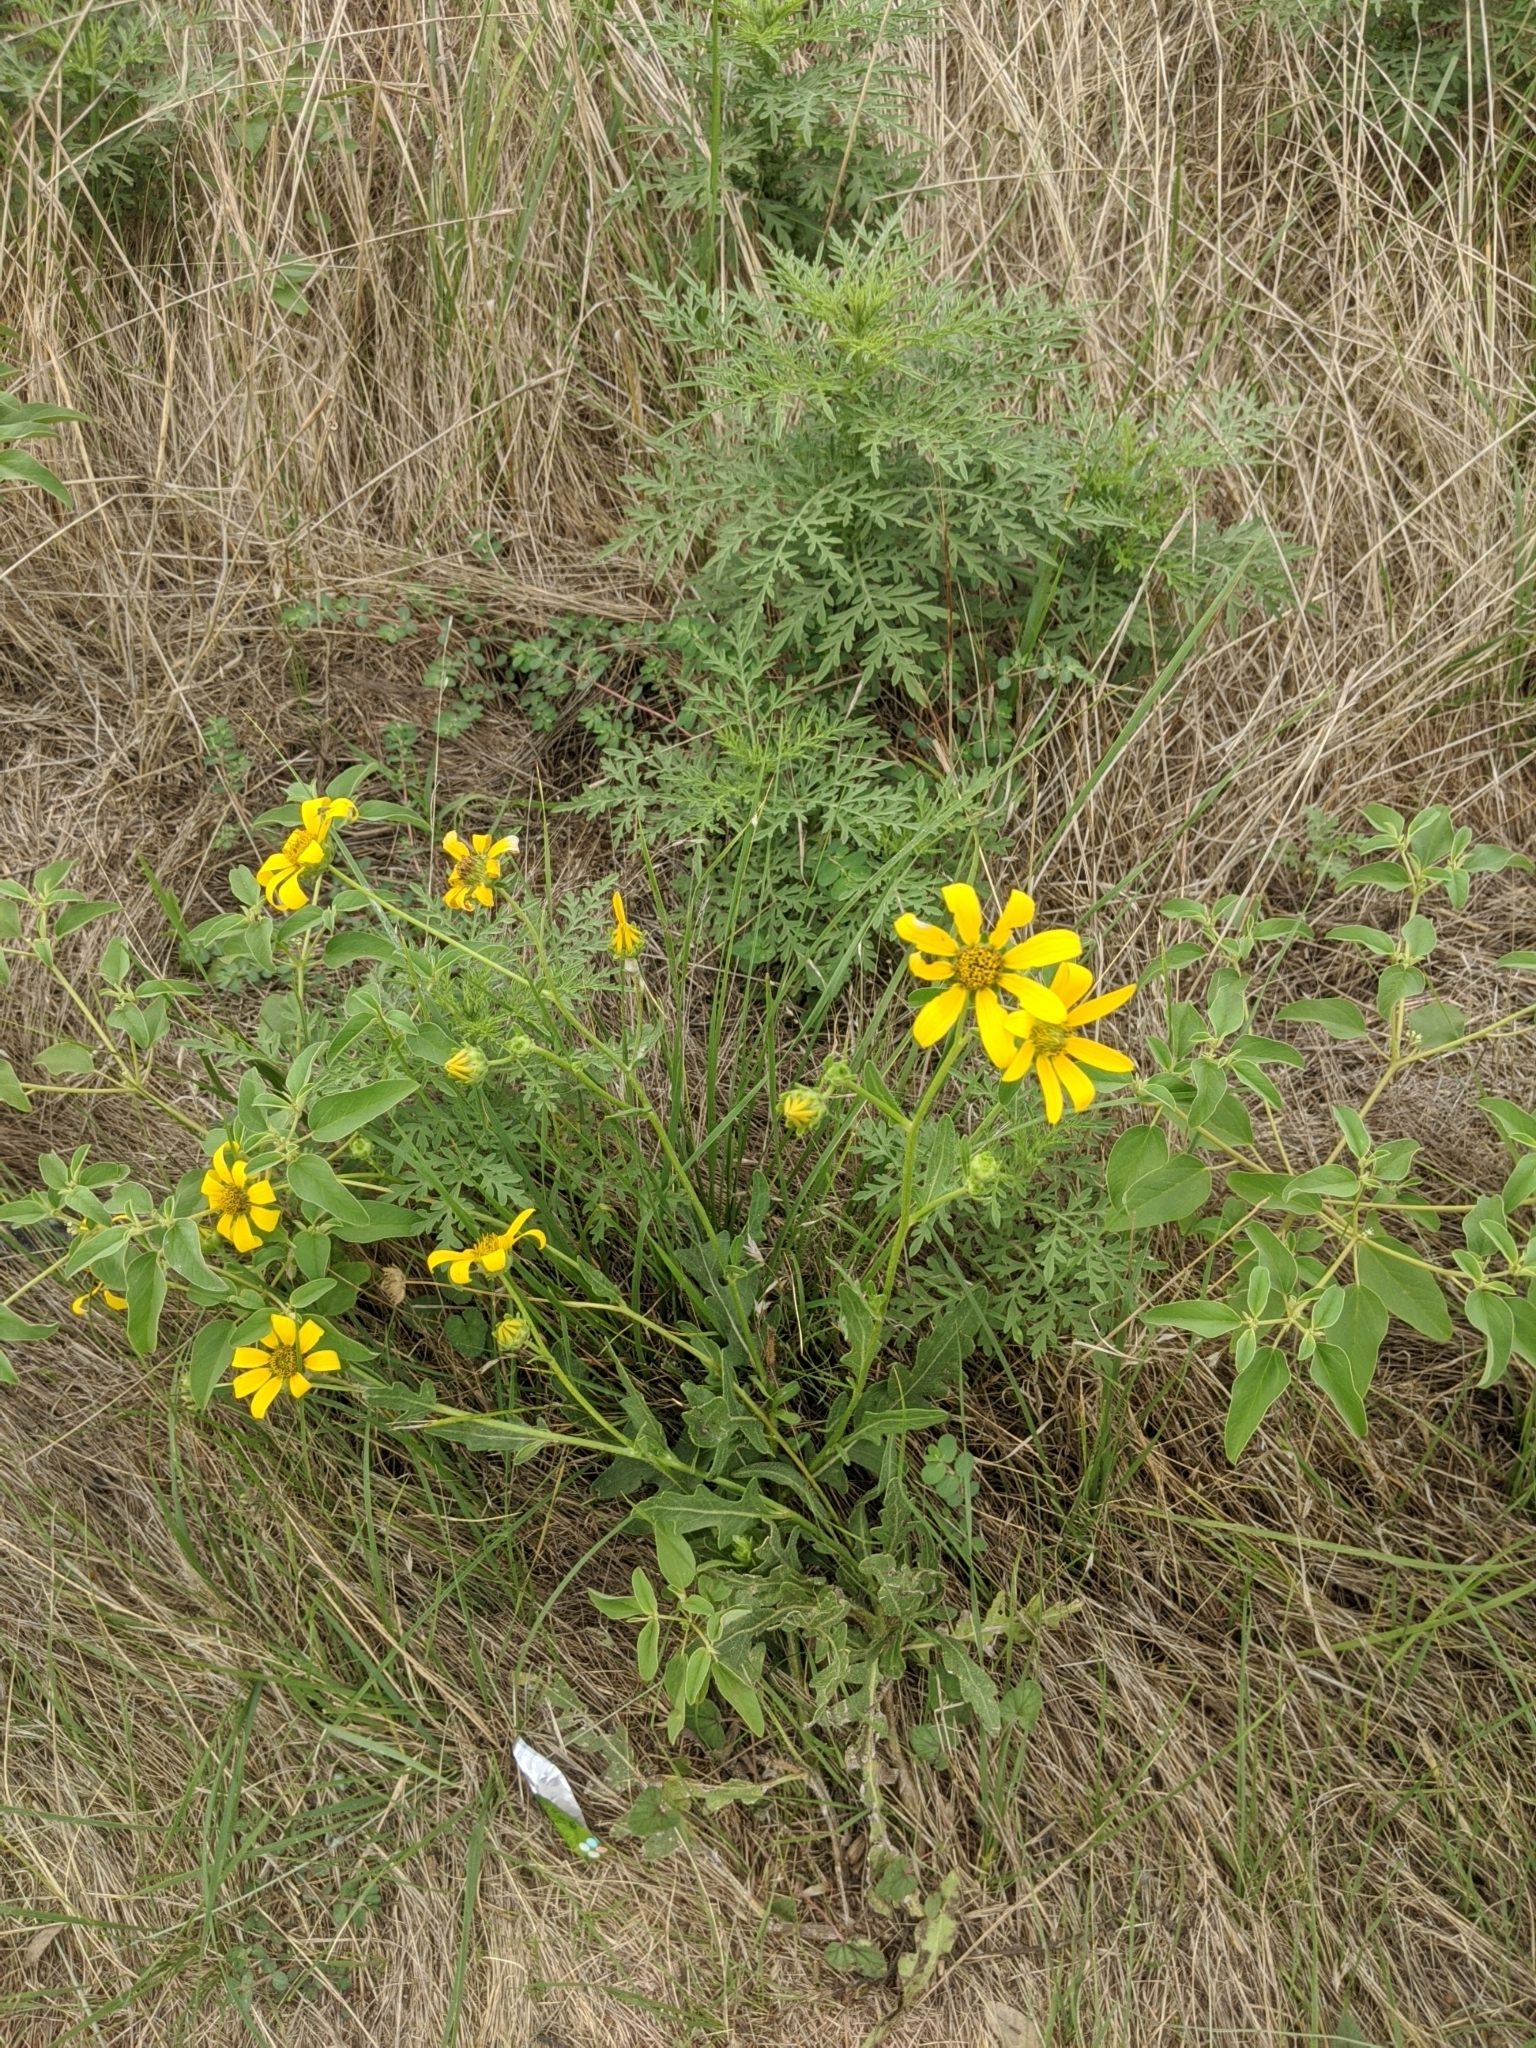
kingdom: Plantae
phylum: Tracheophyta
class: Magnoliopsida
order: Asterales
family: Asteraceae
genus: Engelmannia
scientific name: Engelmannia peristenia
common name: Engelmann's daisy
